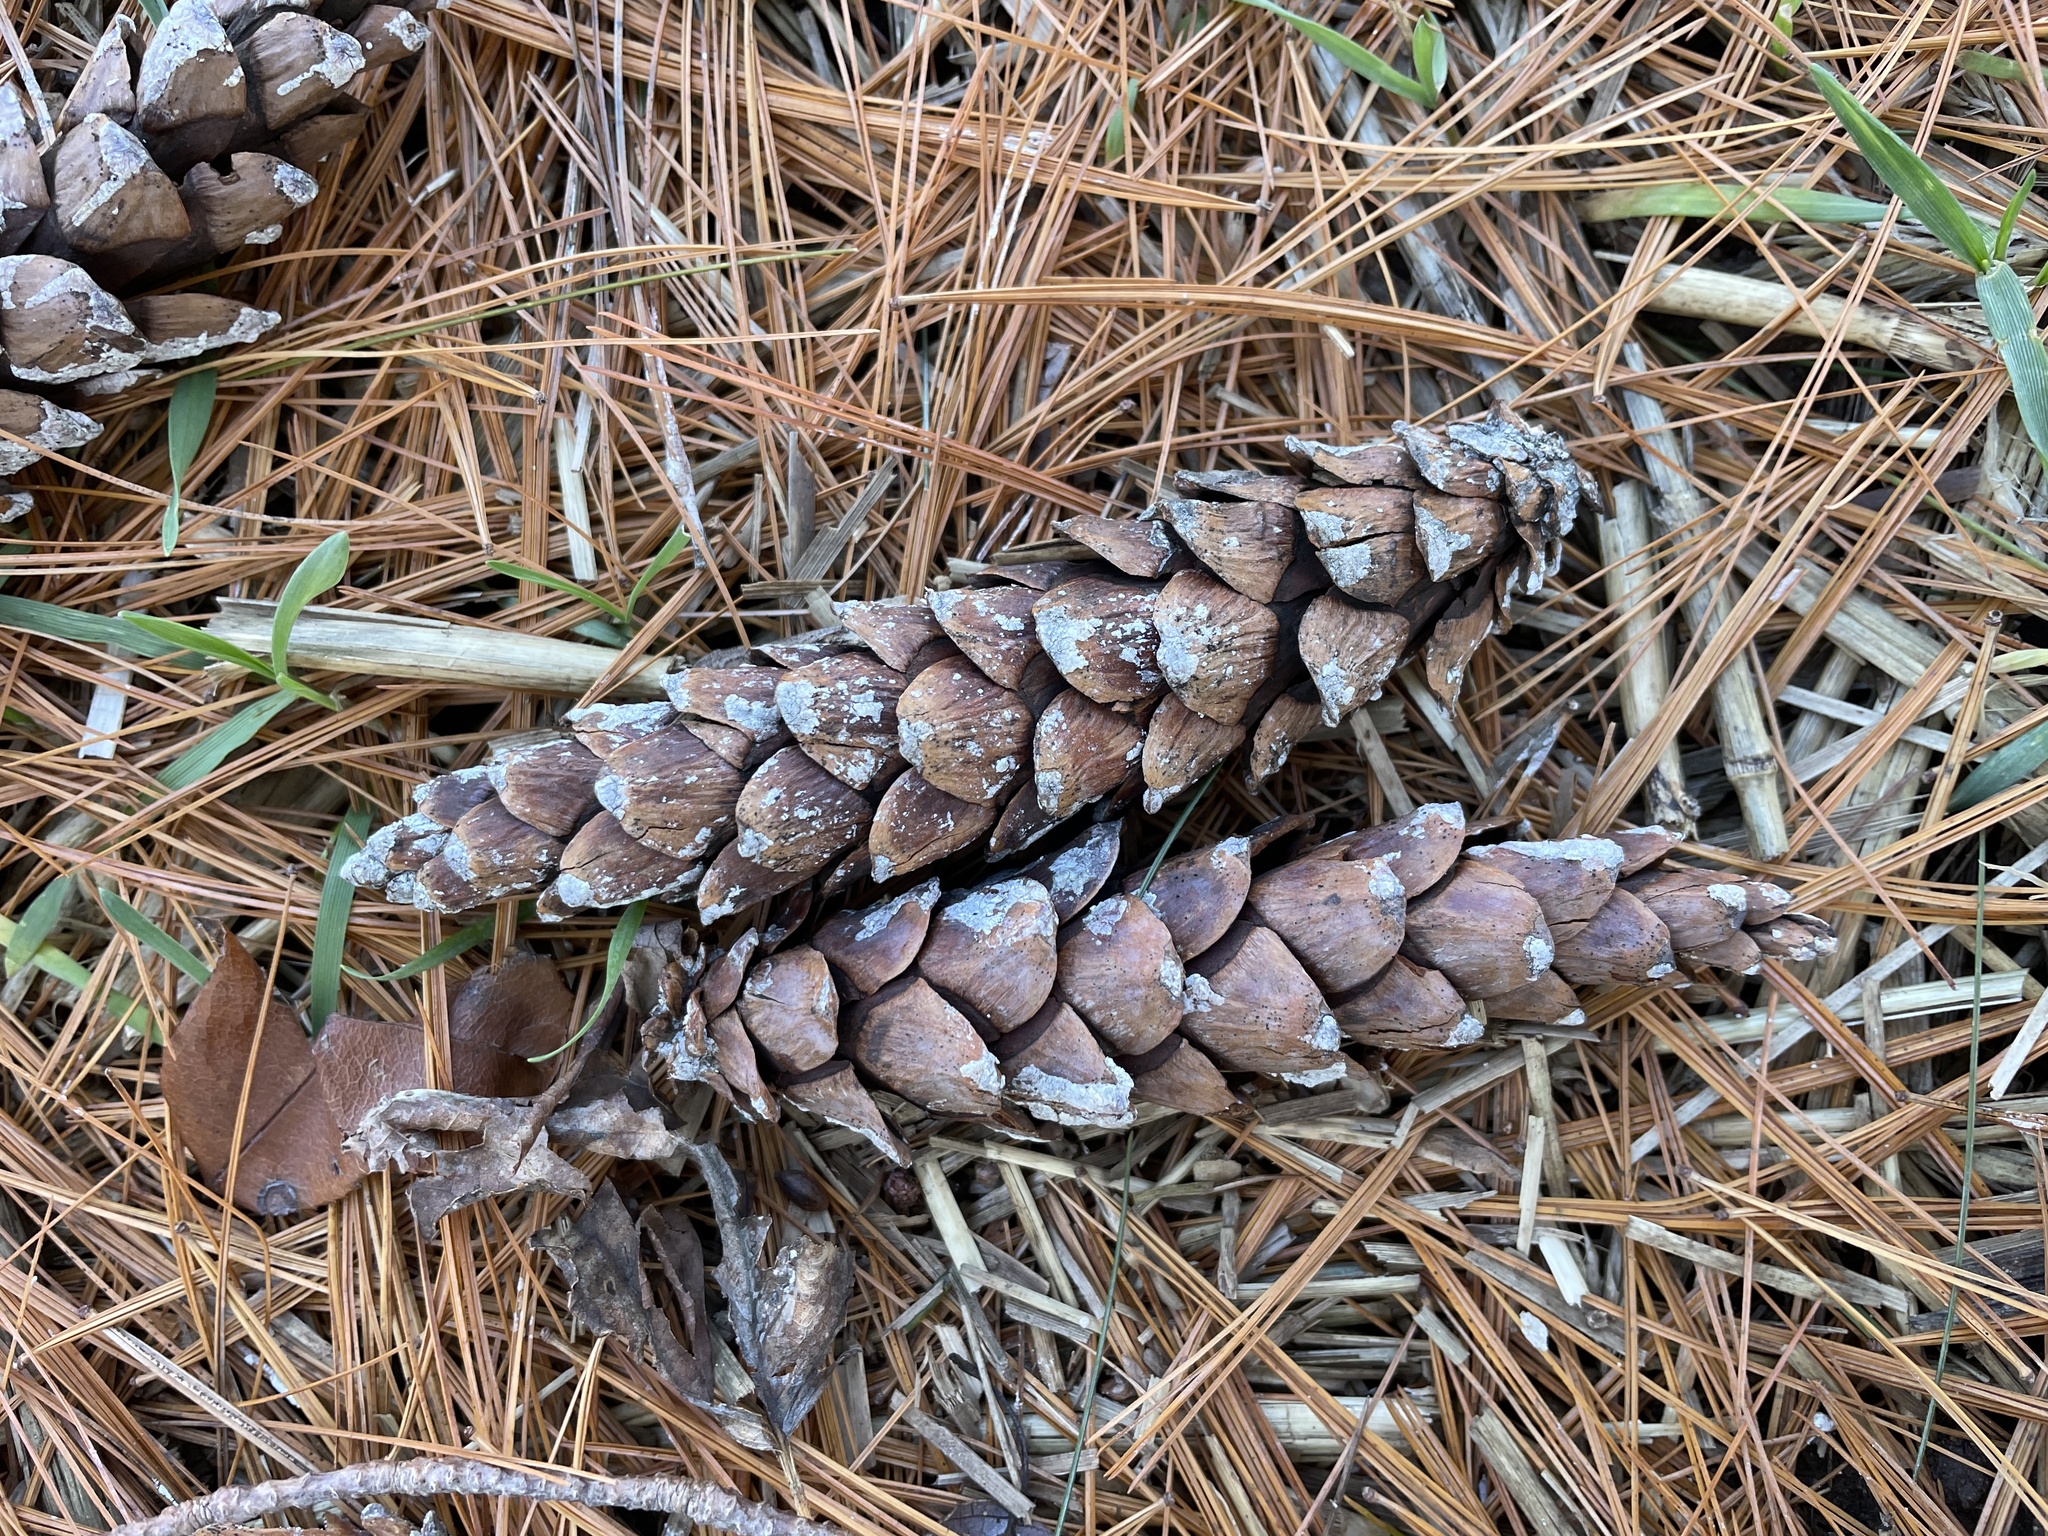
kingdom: Plantae
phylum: Tracheophyta
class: Pinopsida
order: Pinales
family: Pinaceae
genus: Pinus
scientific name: Pinus strobus
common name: Weymouth pine
